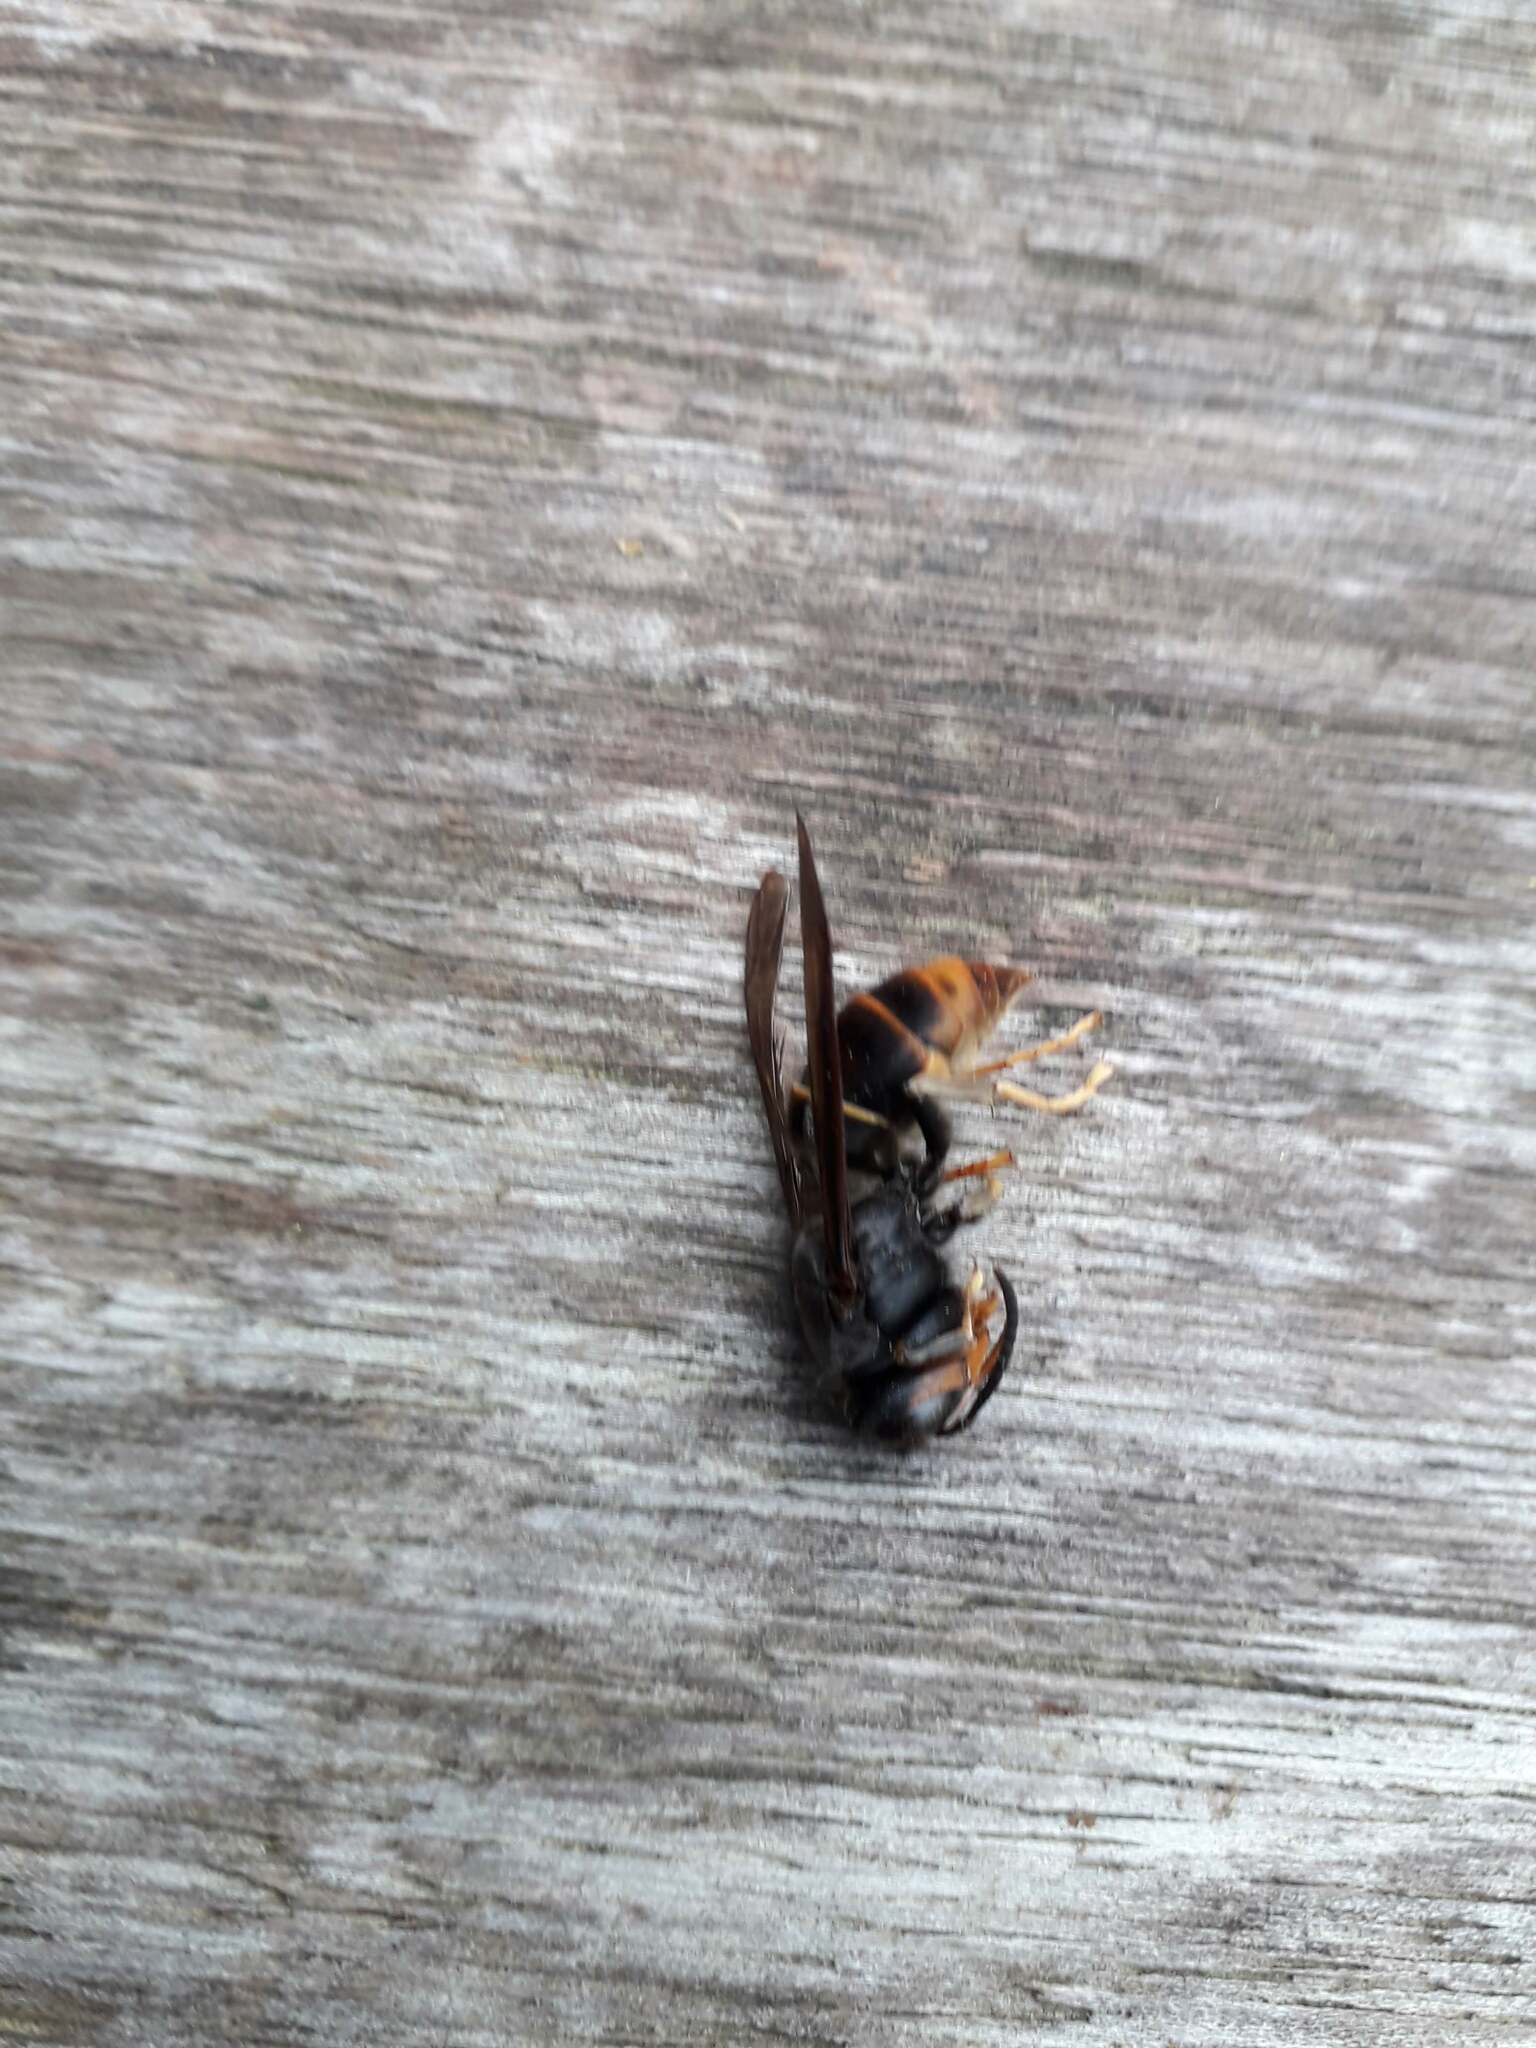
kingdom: Animalia
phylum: Arthropoda
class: Insecta
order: Hymenoptera
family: Vespidae
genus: Vespa
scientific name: Vespa velutina
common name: Asian hornet
